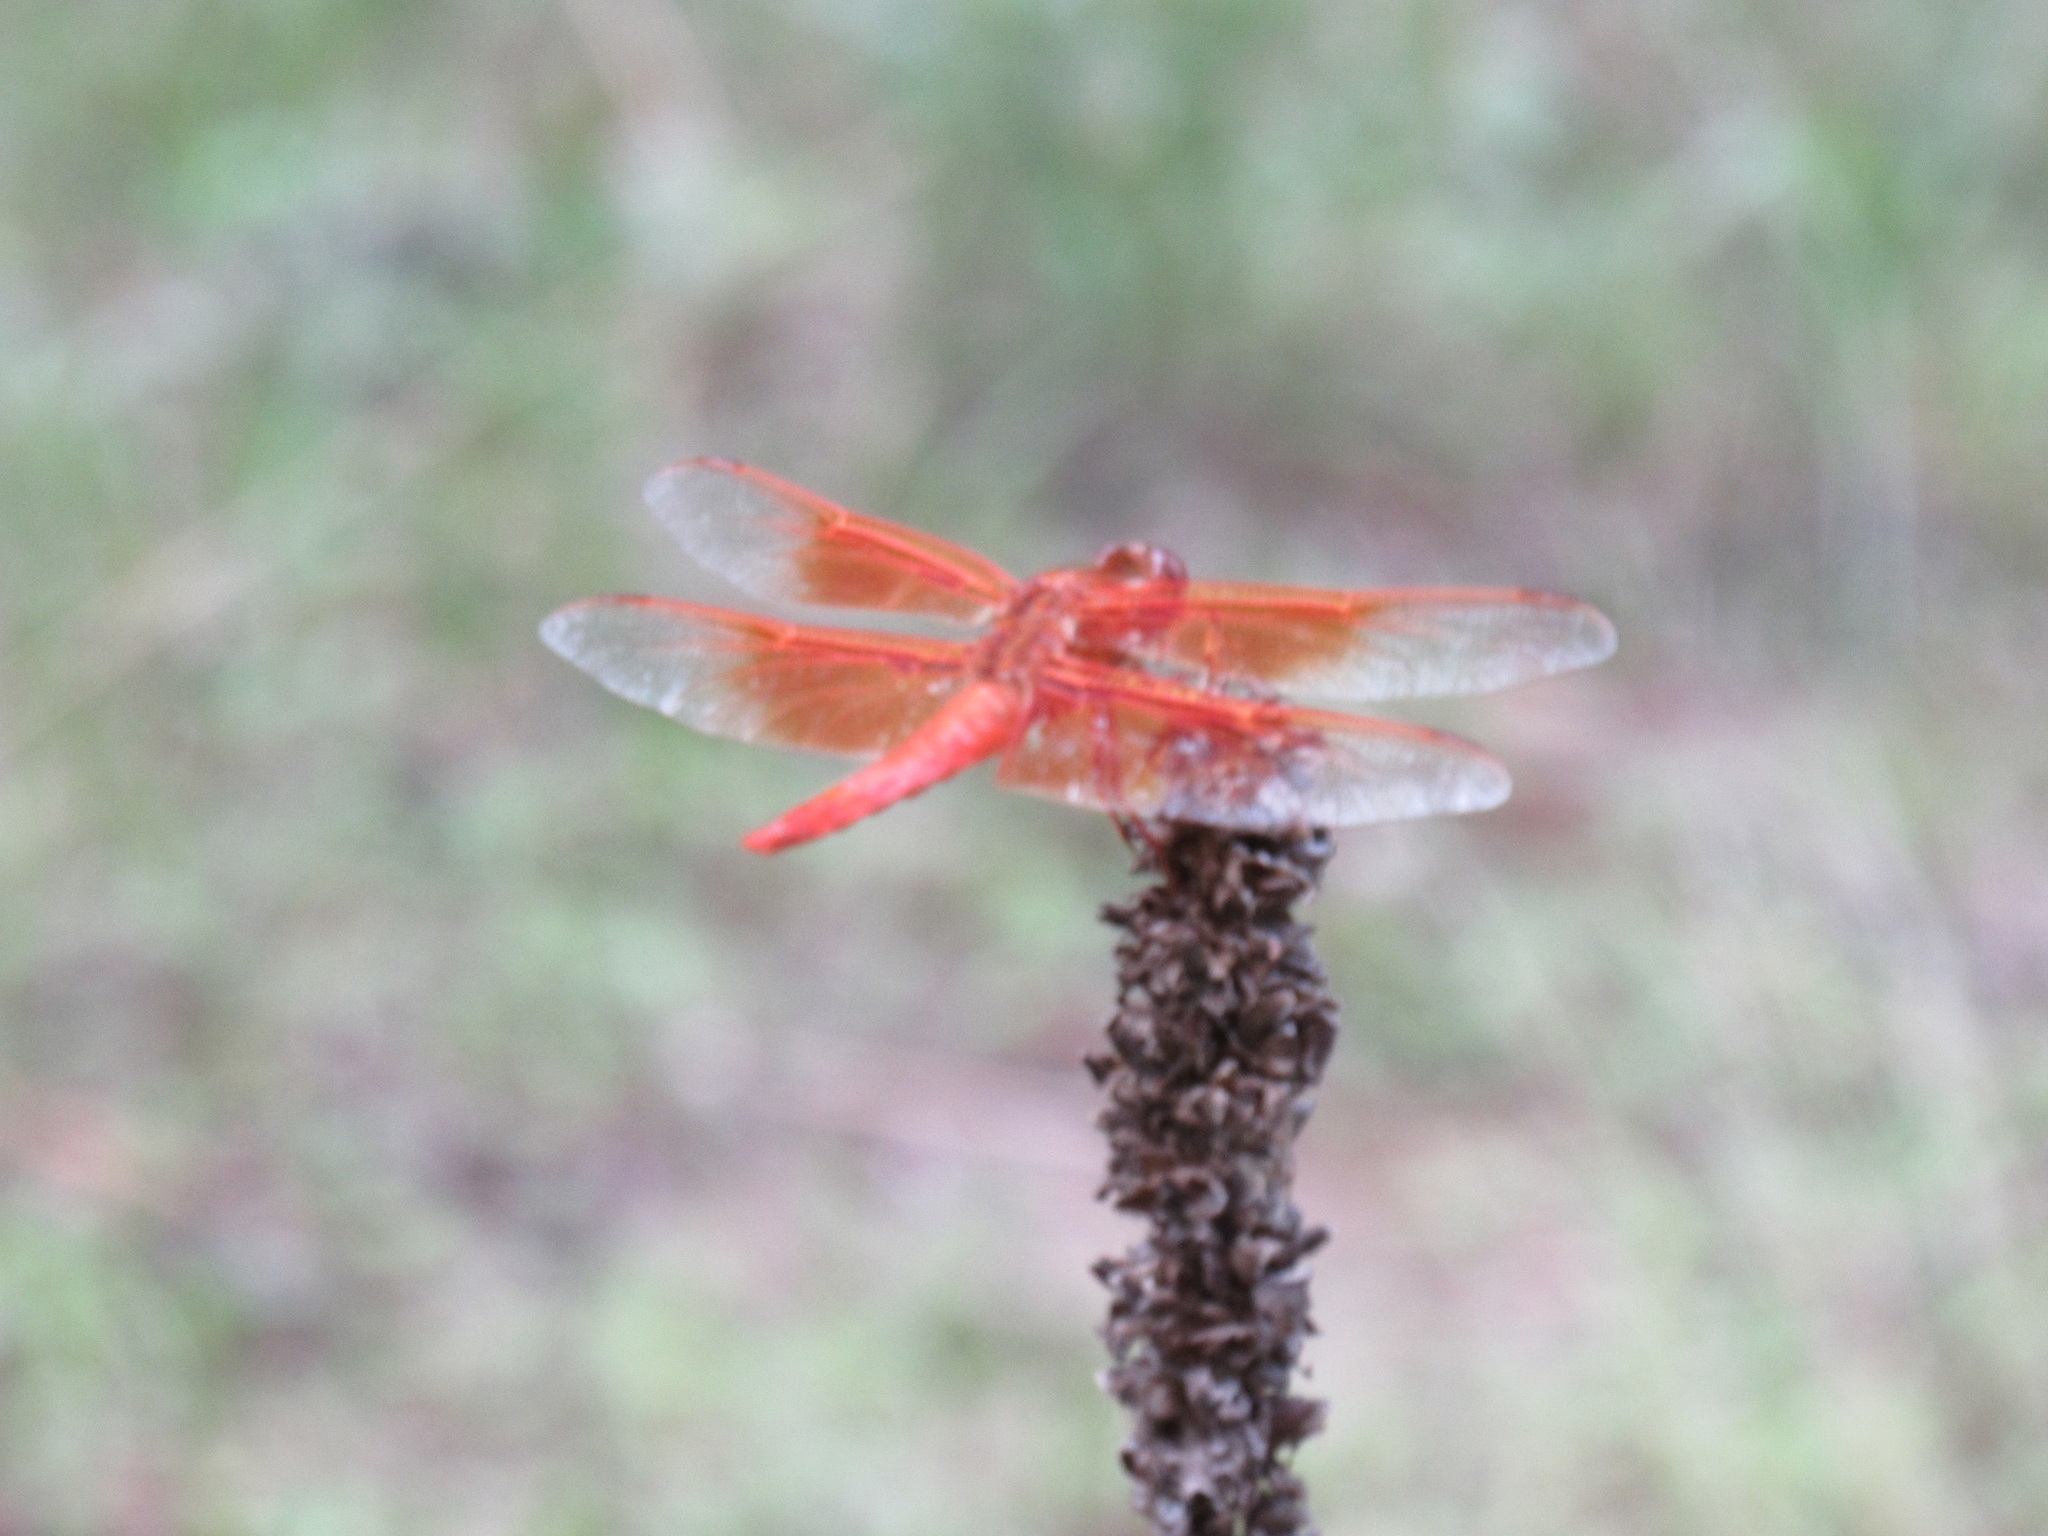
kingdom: Animalia
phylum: Arthropoda
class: Insecta
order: Odonata
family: Libellulidae
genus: Libellula
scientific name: Libellula saturata
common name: Flame skimmer
